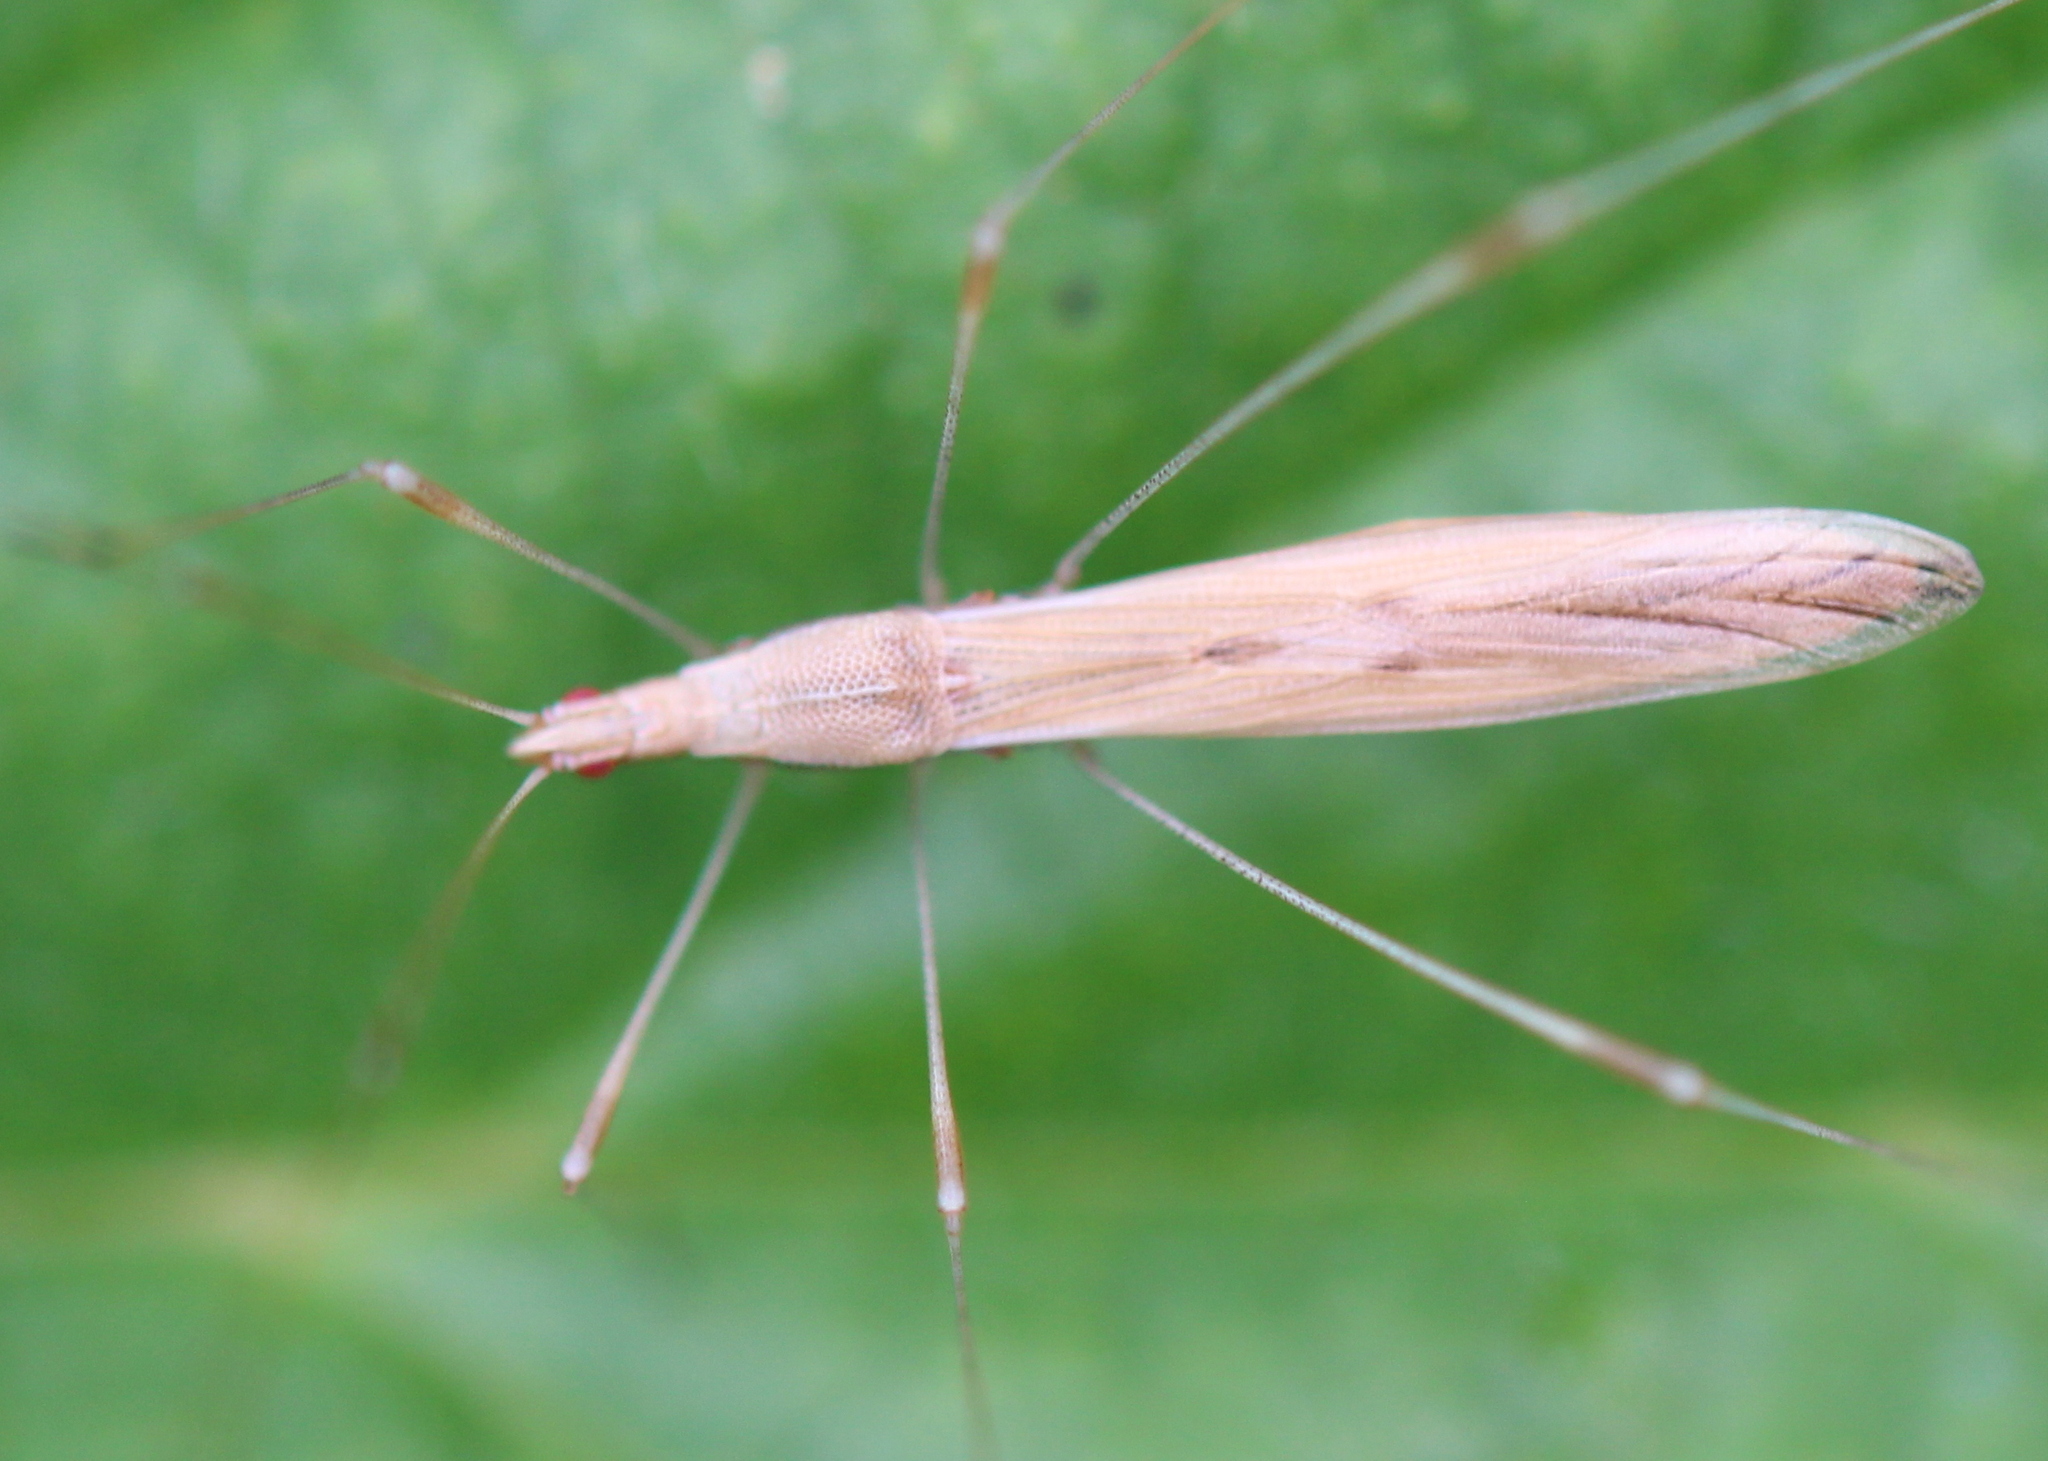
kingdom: Animalia
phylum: Arthropoda
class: Insecta
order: Hemiptera
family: Berytidae
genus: Neoneides
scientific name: Neoneides muticus
